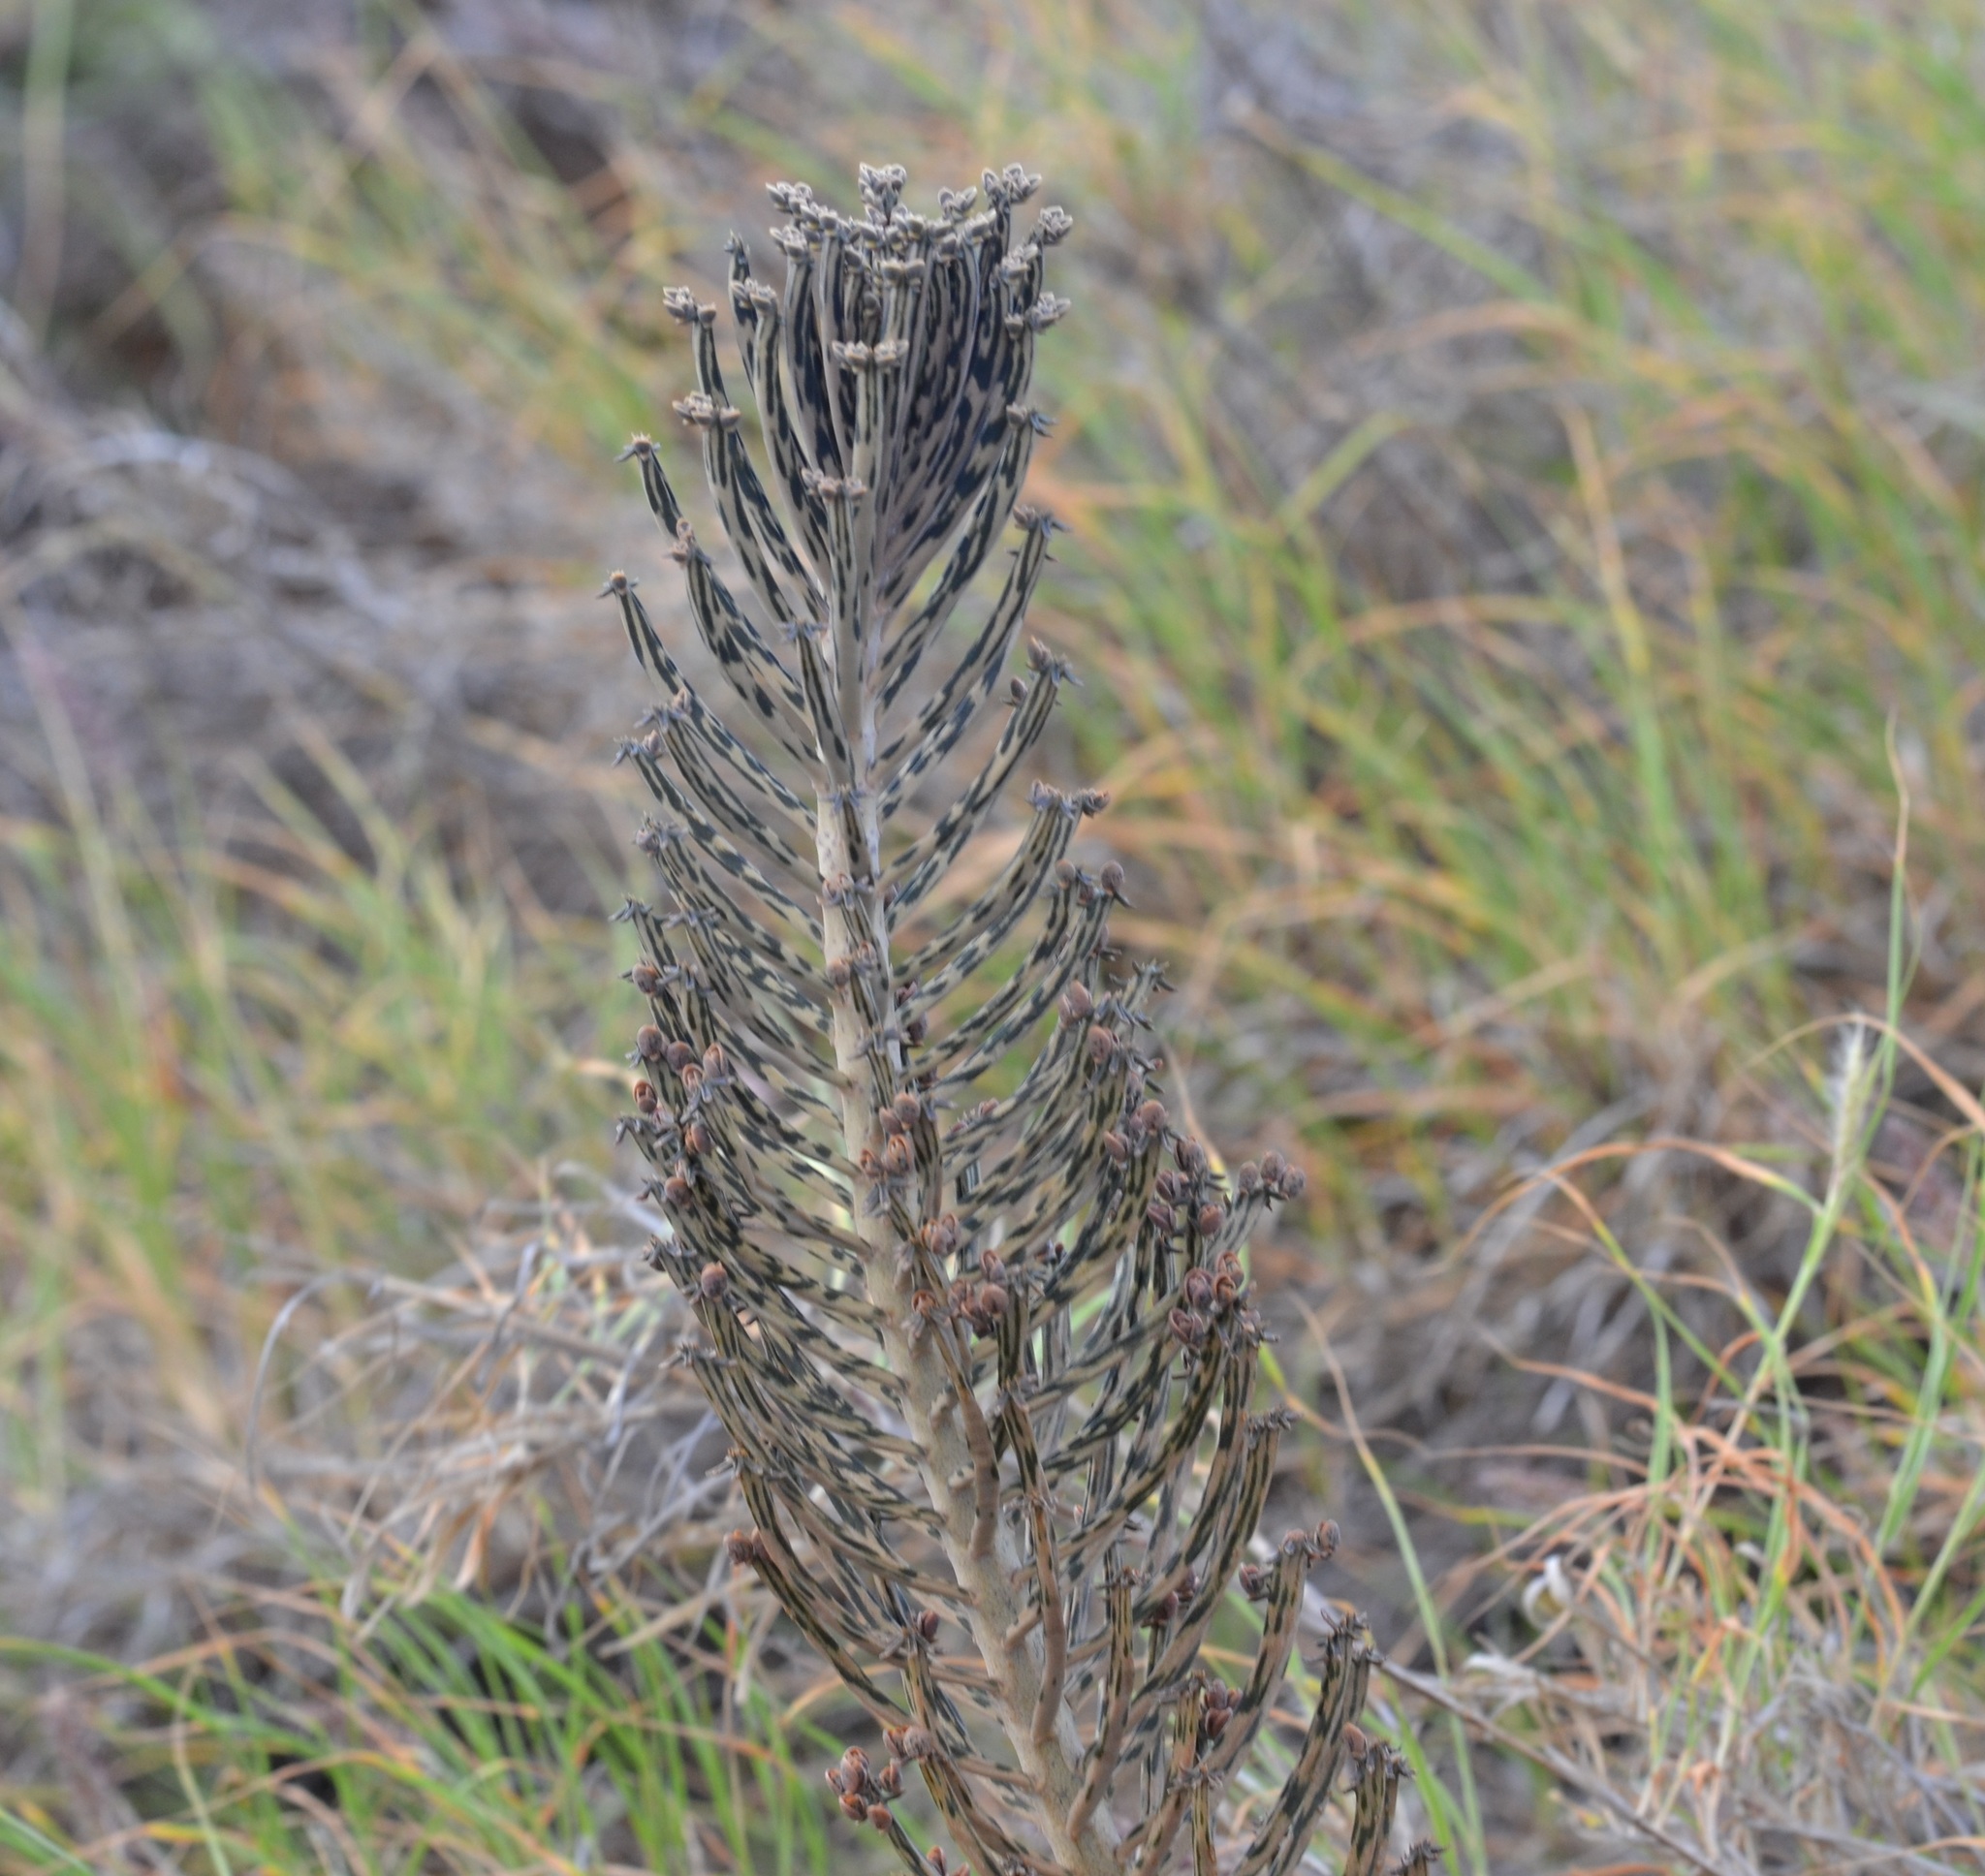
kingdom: Plantae
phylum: Tracheophyta
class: Magnoliopsida
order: Saxifragales
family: Crassulaceae
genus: Kalanchoe
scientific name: Kalanchoe delagoensis
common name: Chandelier plant
